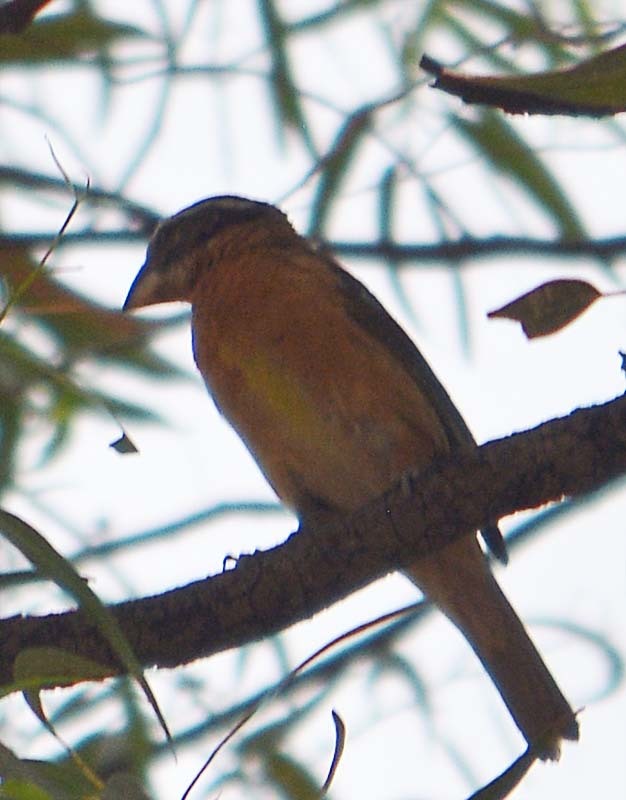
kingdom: Animalia
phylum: Chordata
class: Aves
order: Passeriformes
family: Cardinalidae
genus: Pheucticus
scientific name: Pheucticus melanocephalus
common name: Black-headed grosbeak
